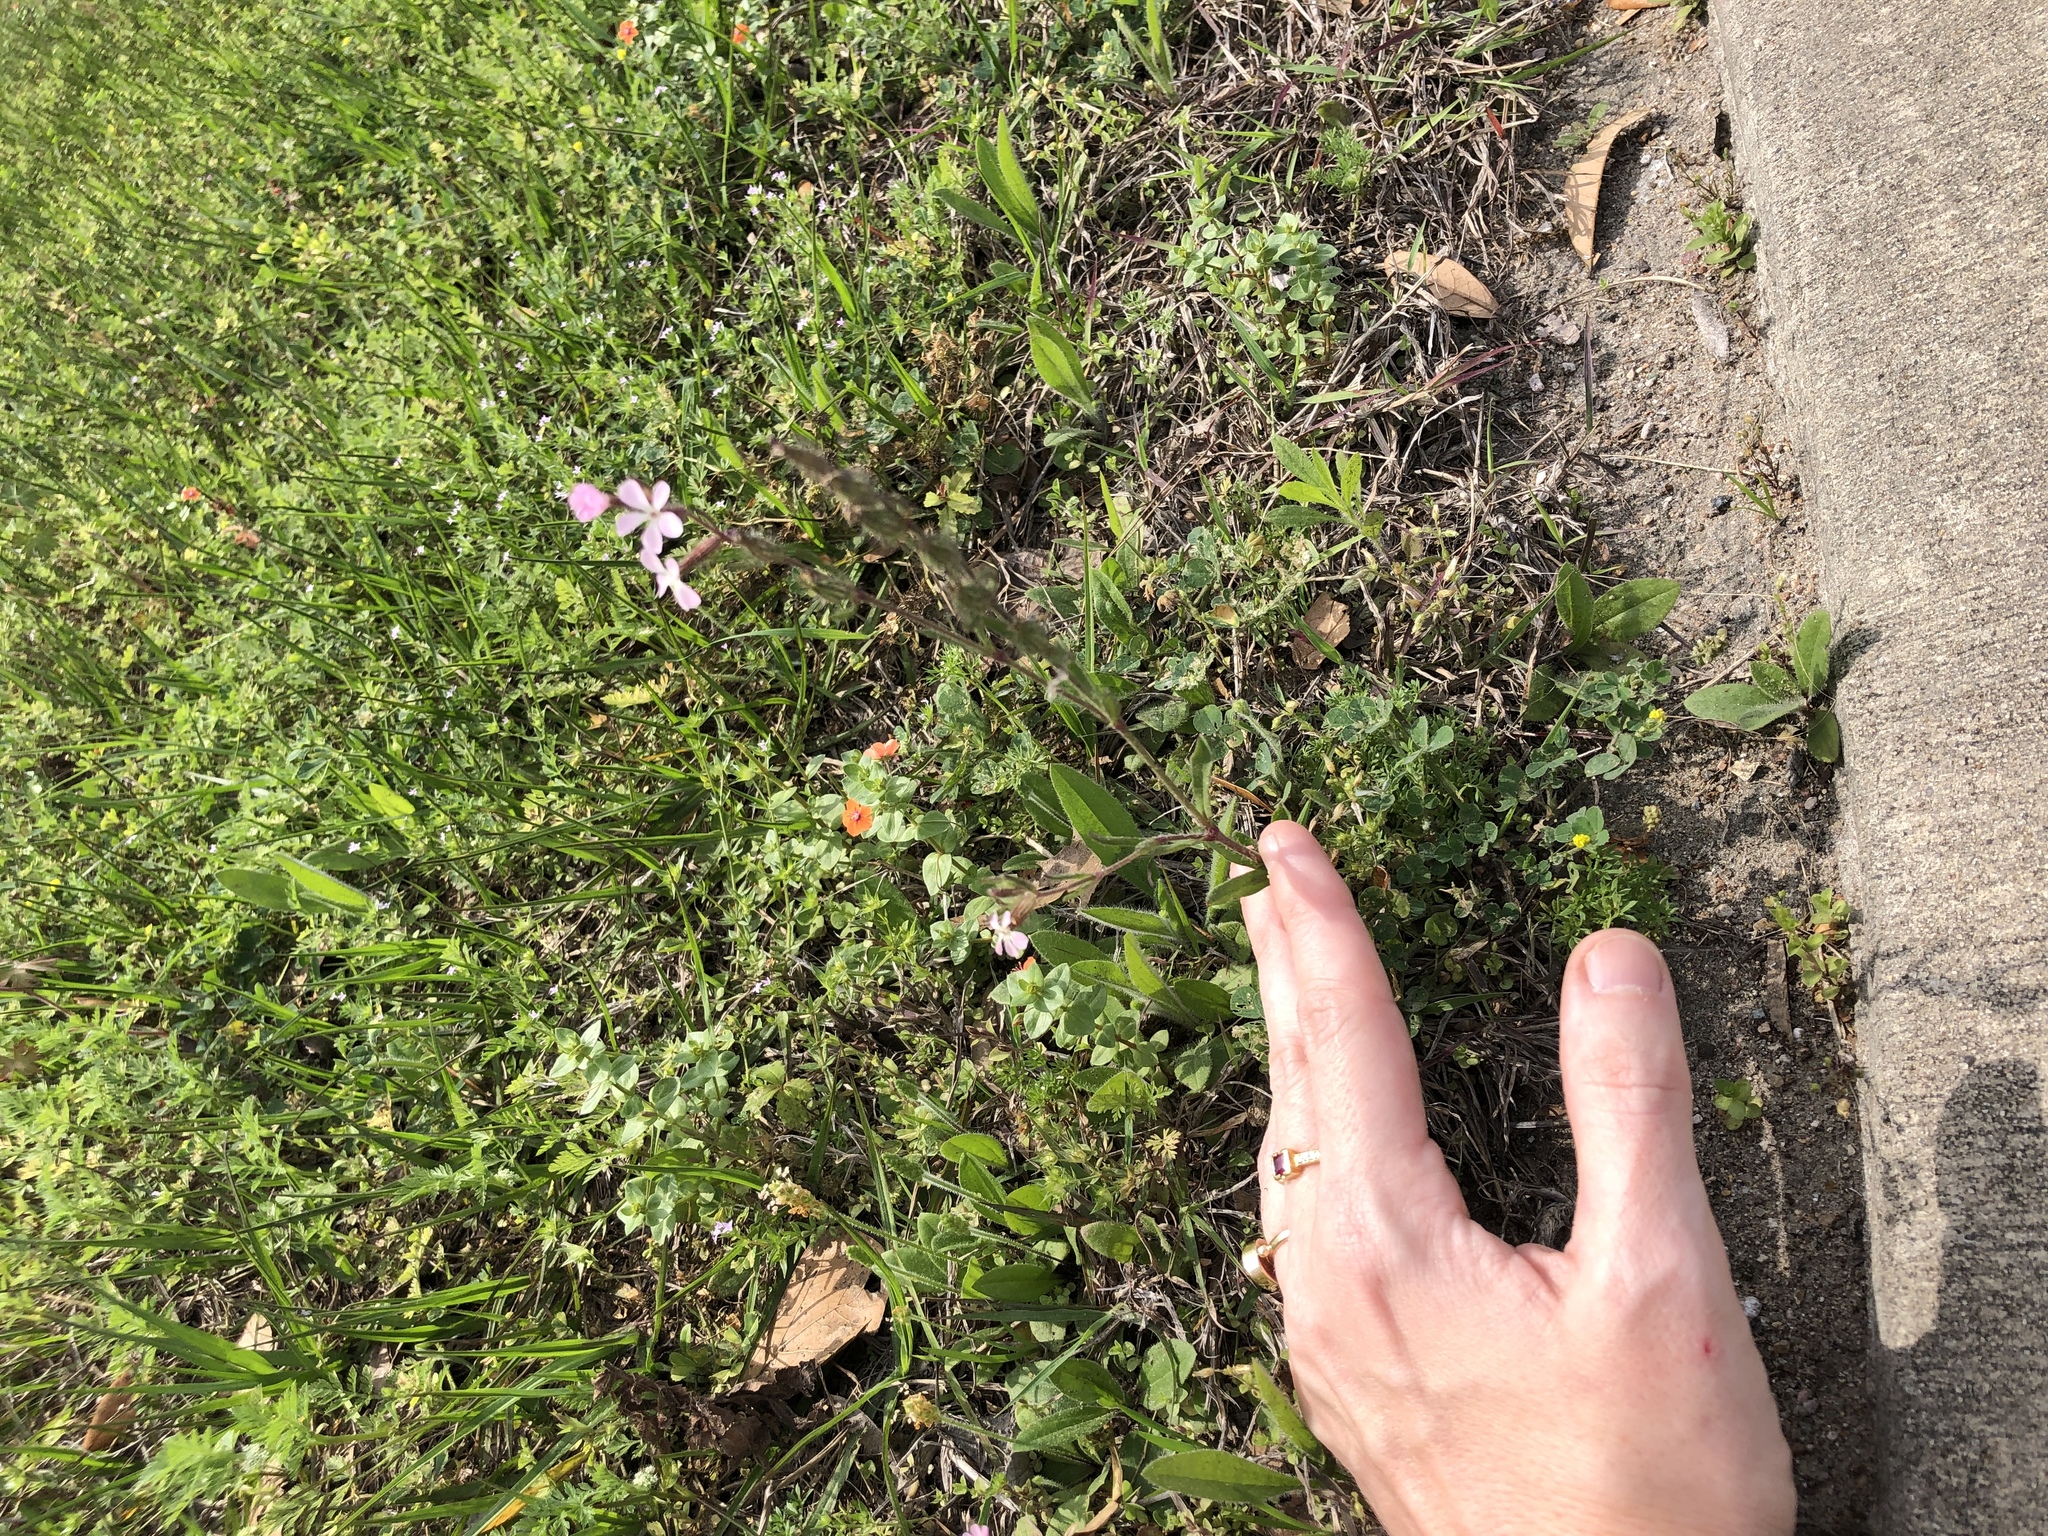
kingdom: Plantae
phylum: Tracheophyta
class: Magnoliopsida
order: Caryophyllales
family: Caryophyllaceae
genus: Silene
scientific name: Silene gallica
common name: Small-flowered catchfly
